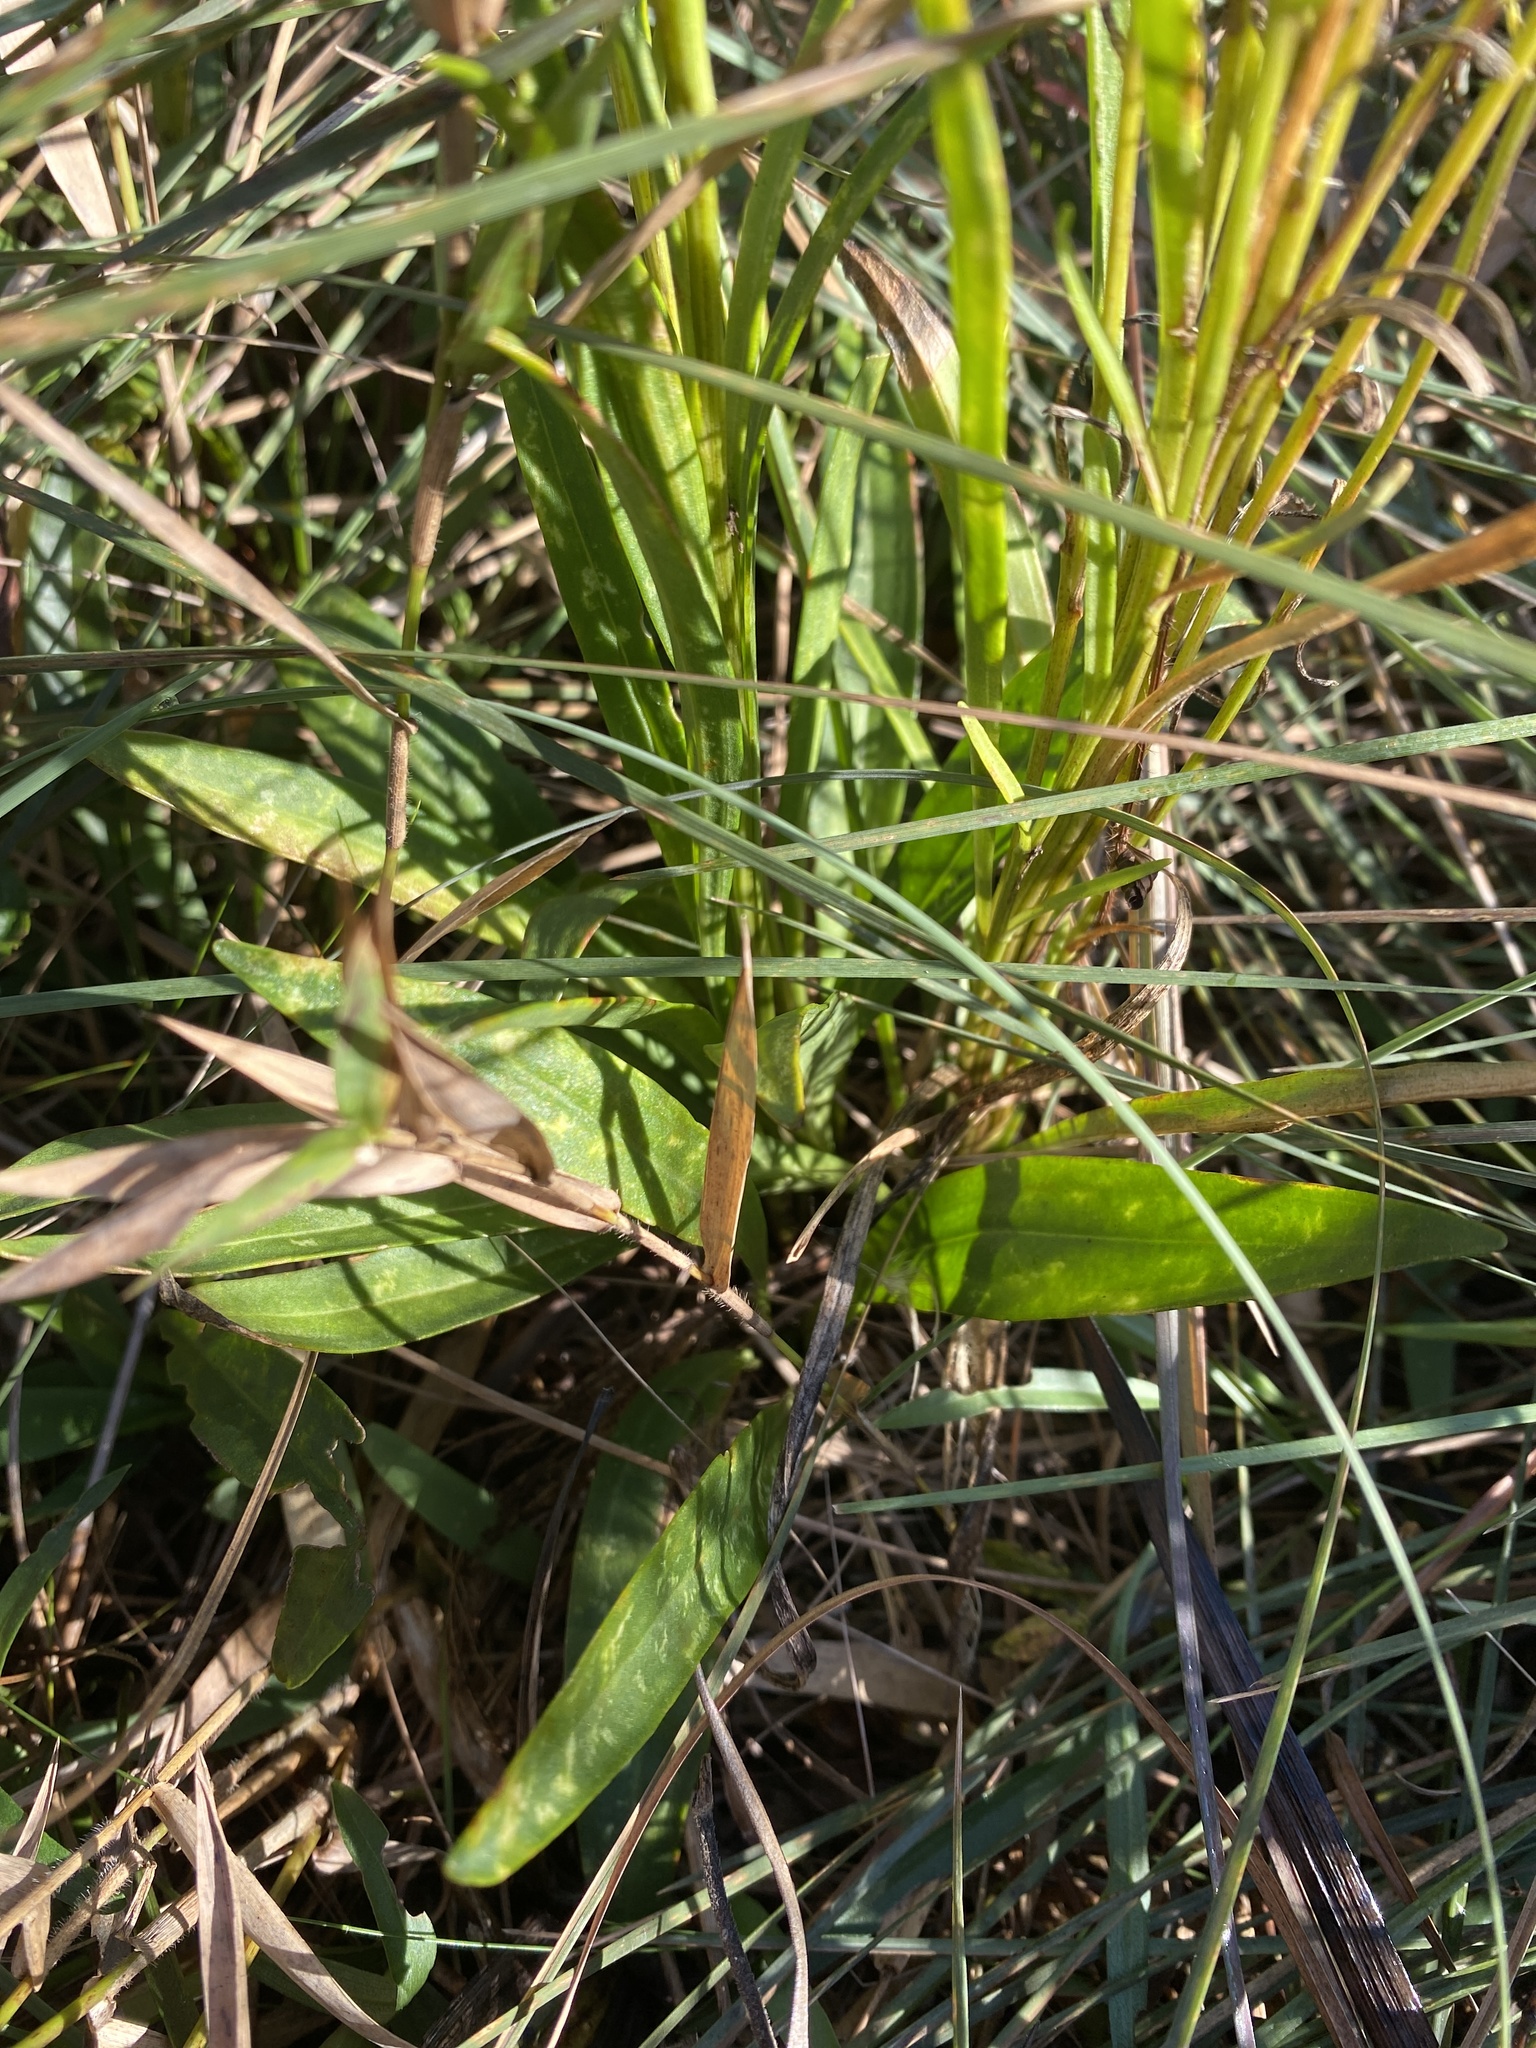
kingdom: Plantae
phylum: Tracheophyta
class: Magnoliopsida
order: Asterales
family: Asteraceae
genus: Marshallia
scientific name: Marshallia graminifolia
